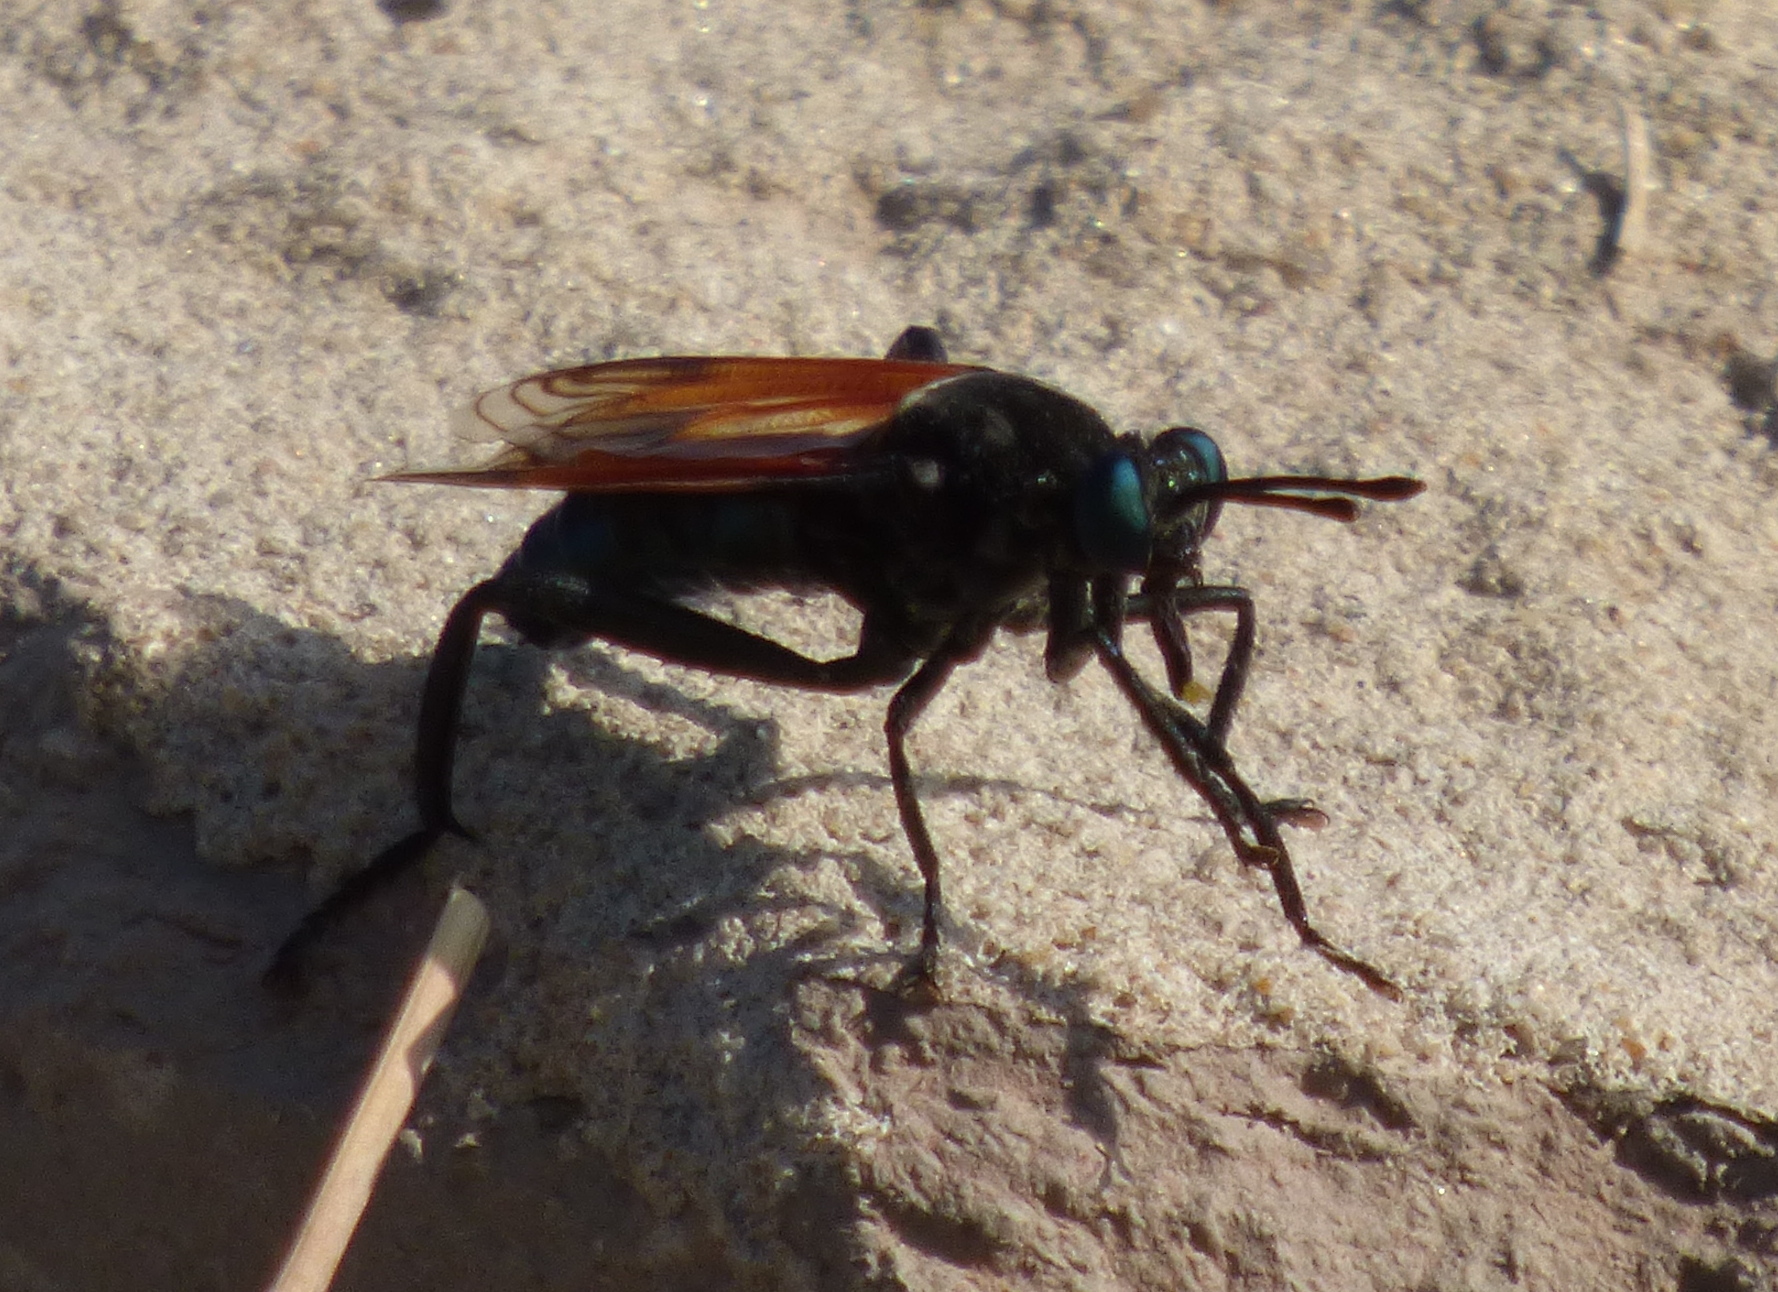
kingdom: Animalia
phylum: Arthropoda
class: Insecta
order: Diptera
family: Mydidae
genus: Gauromydas
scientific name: Gauromydas papaveroi
